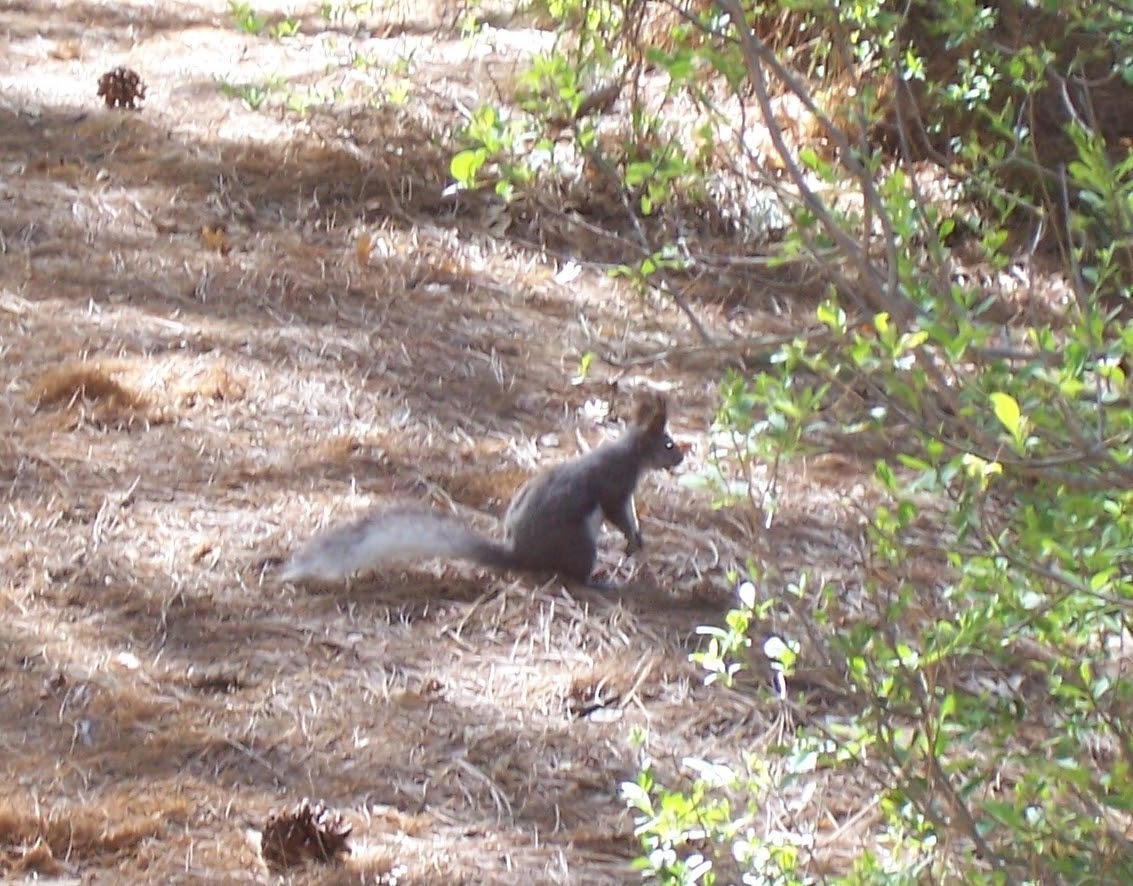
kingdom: Animalia
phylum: Chordata
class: Mammalia
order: Rodentia
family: Sciuridae
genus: Sciurus
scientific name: Sciurus aberti
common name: Abert's squirrel
